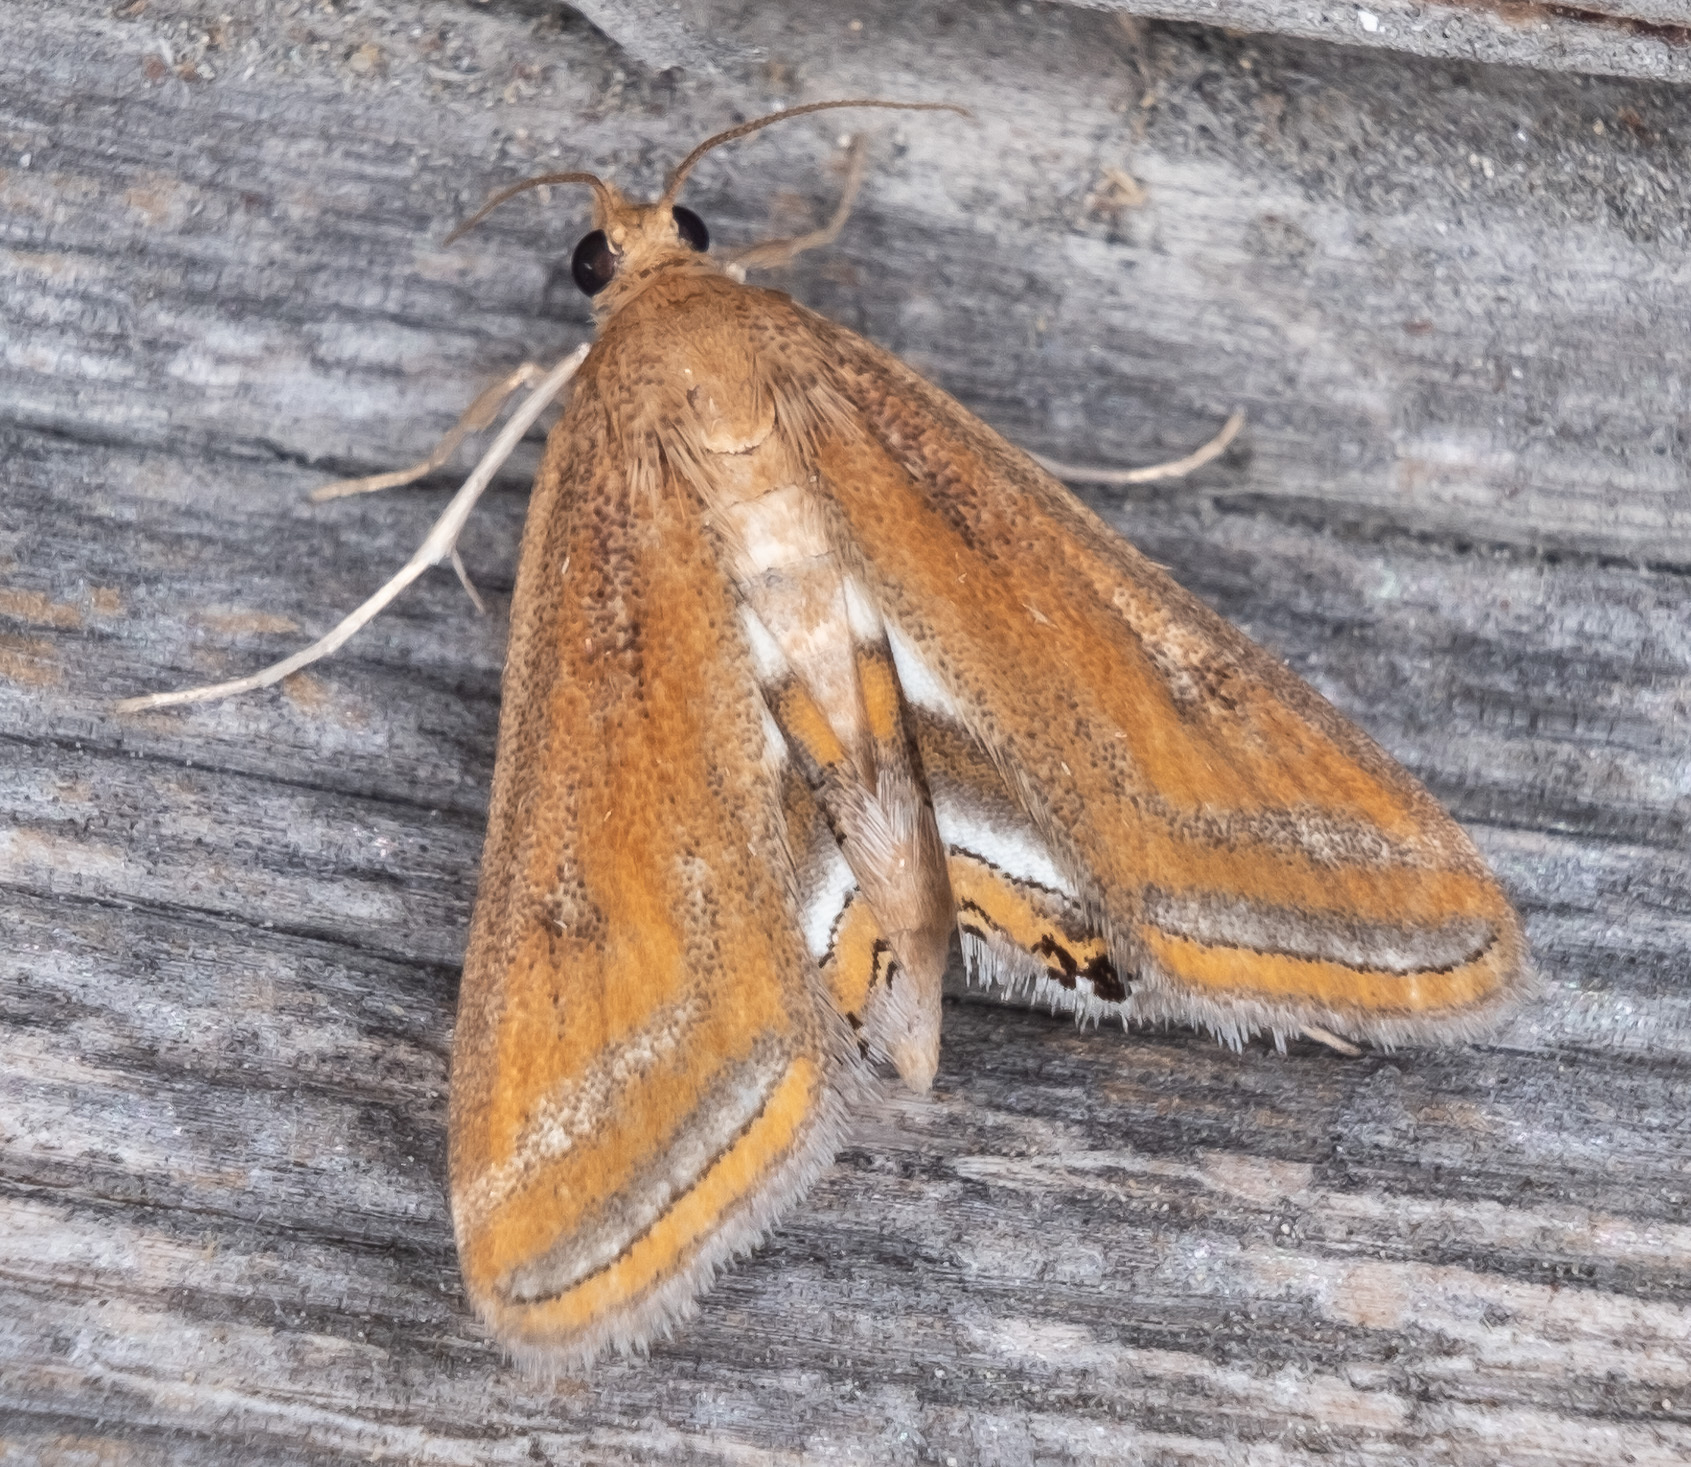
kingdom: Animalia
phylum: Arthropoda
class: Insecta
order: Lepidoptera
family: Crambidae
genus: Parapoynx
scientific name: Parapoynx seminealis
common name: Floating-heart waterlily leafcutter
